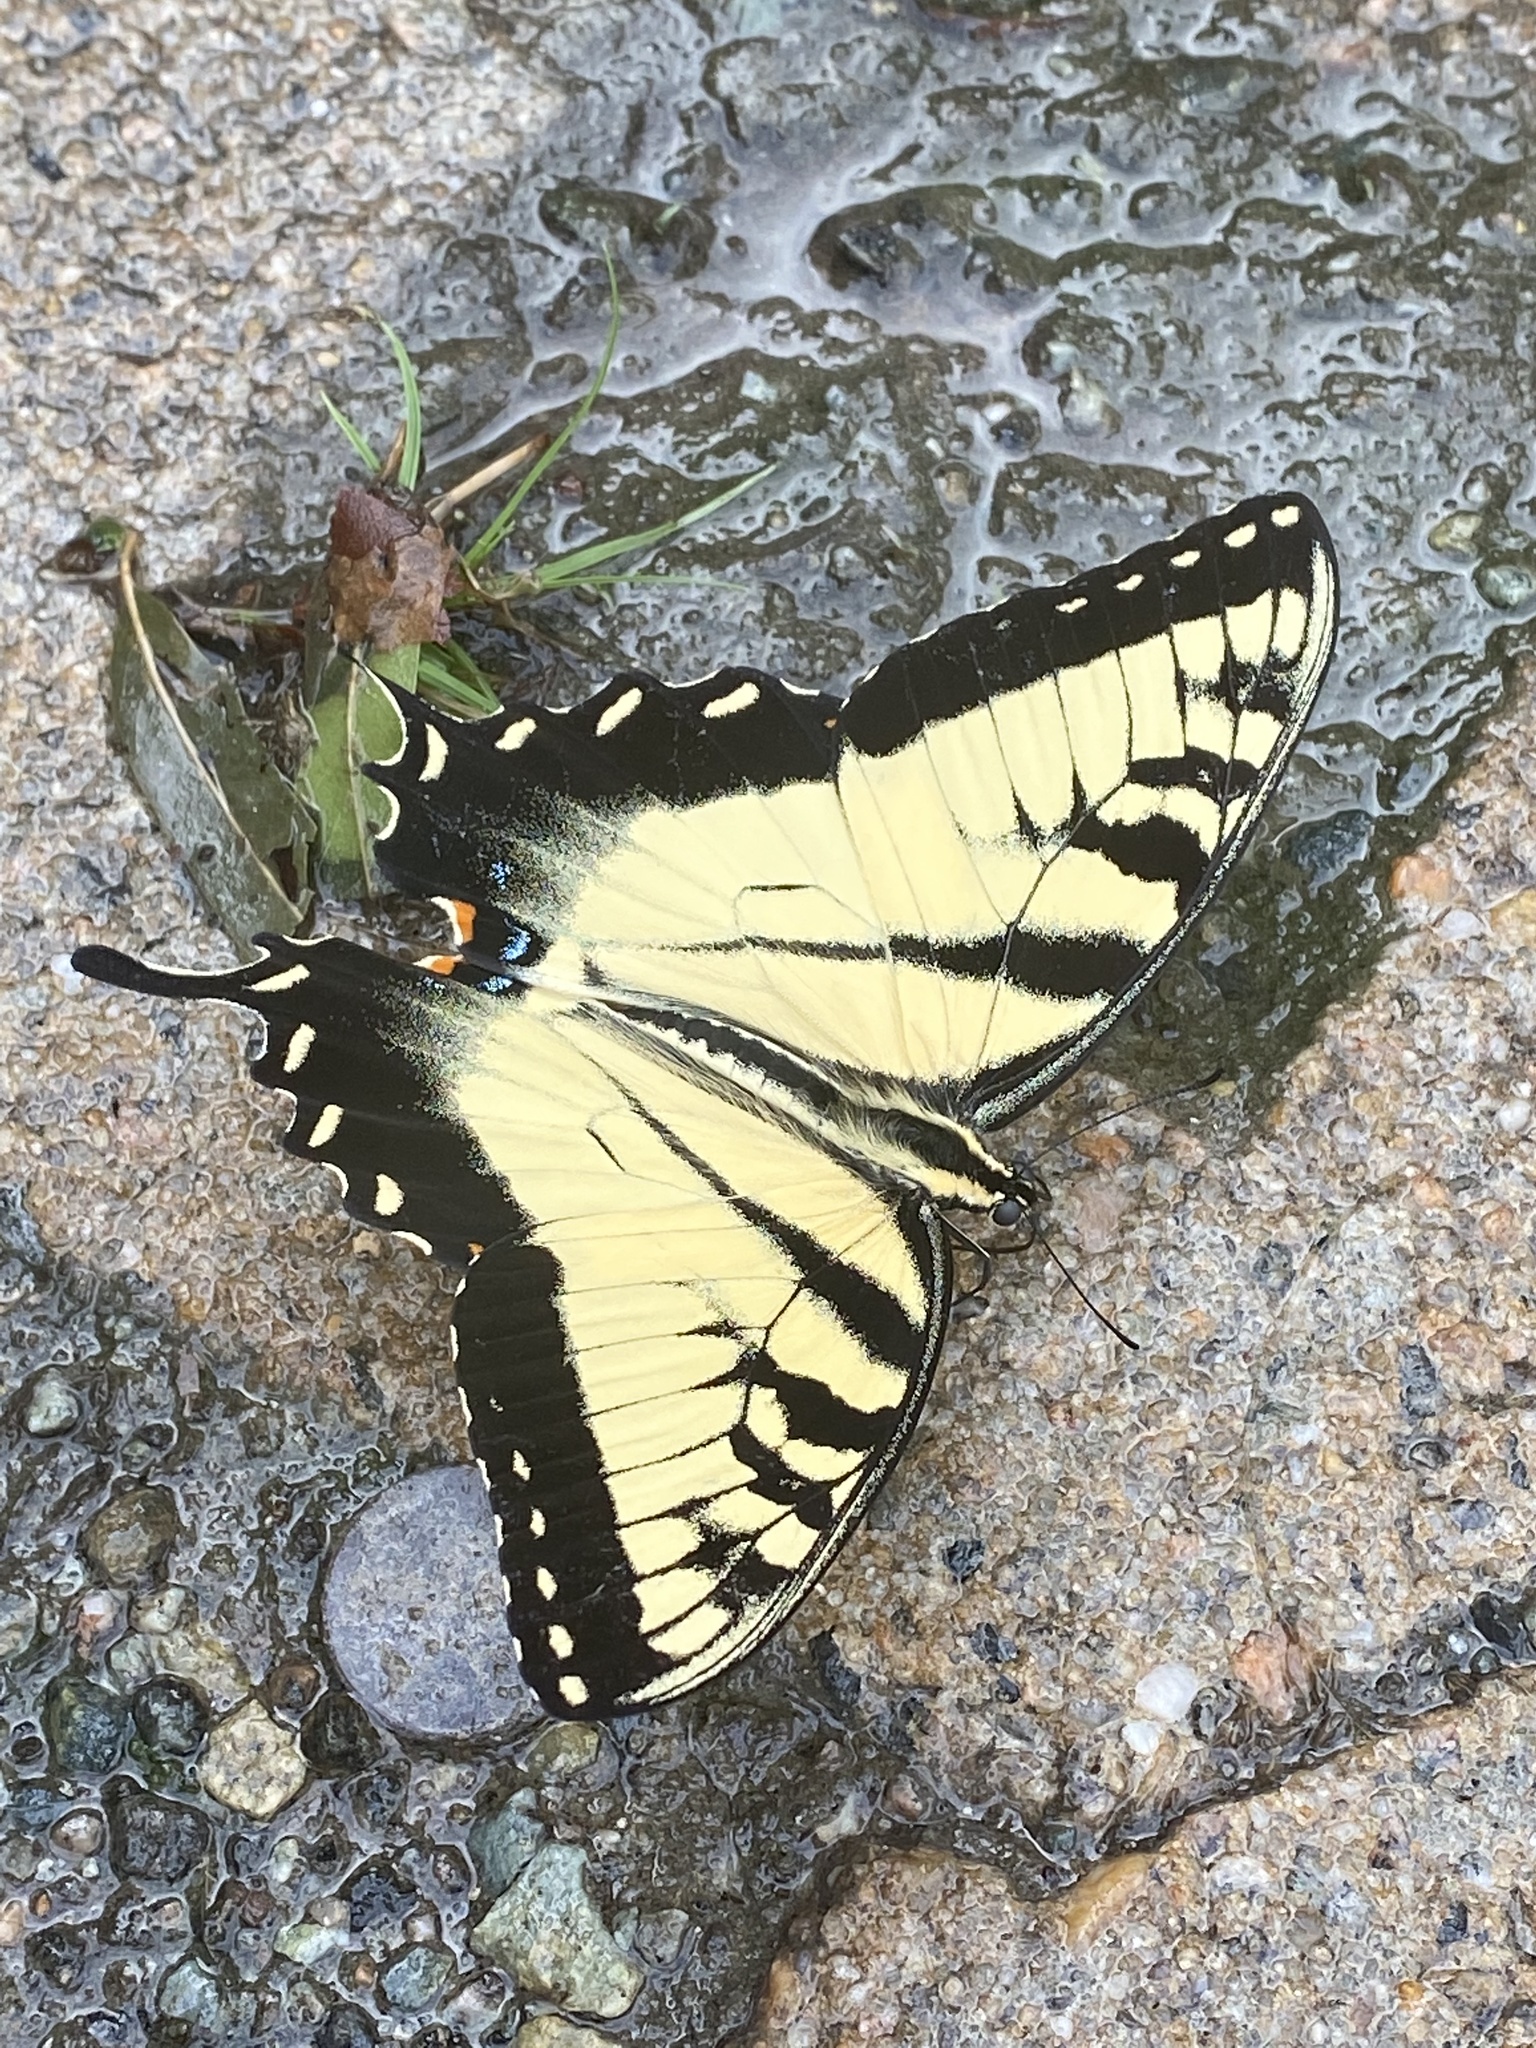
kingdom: Animalia
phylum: Arthropoda
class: Insecta
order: Lepidoptera
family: Papilionidae
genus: Papilio
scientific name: Papilio glaucus
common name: Tiger swallowtail
